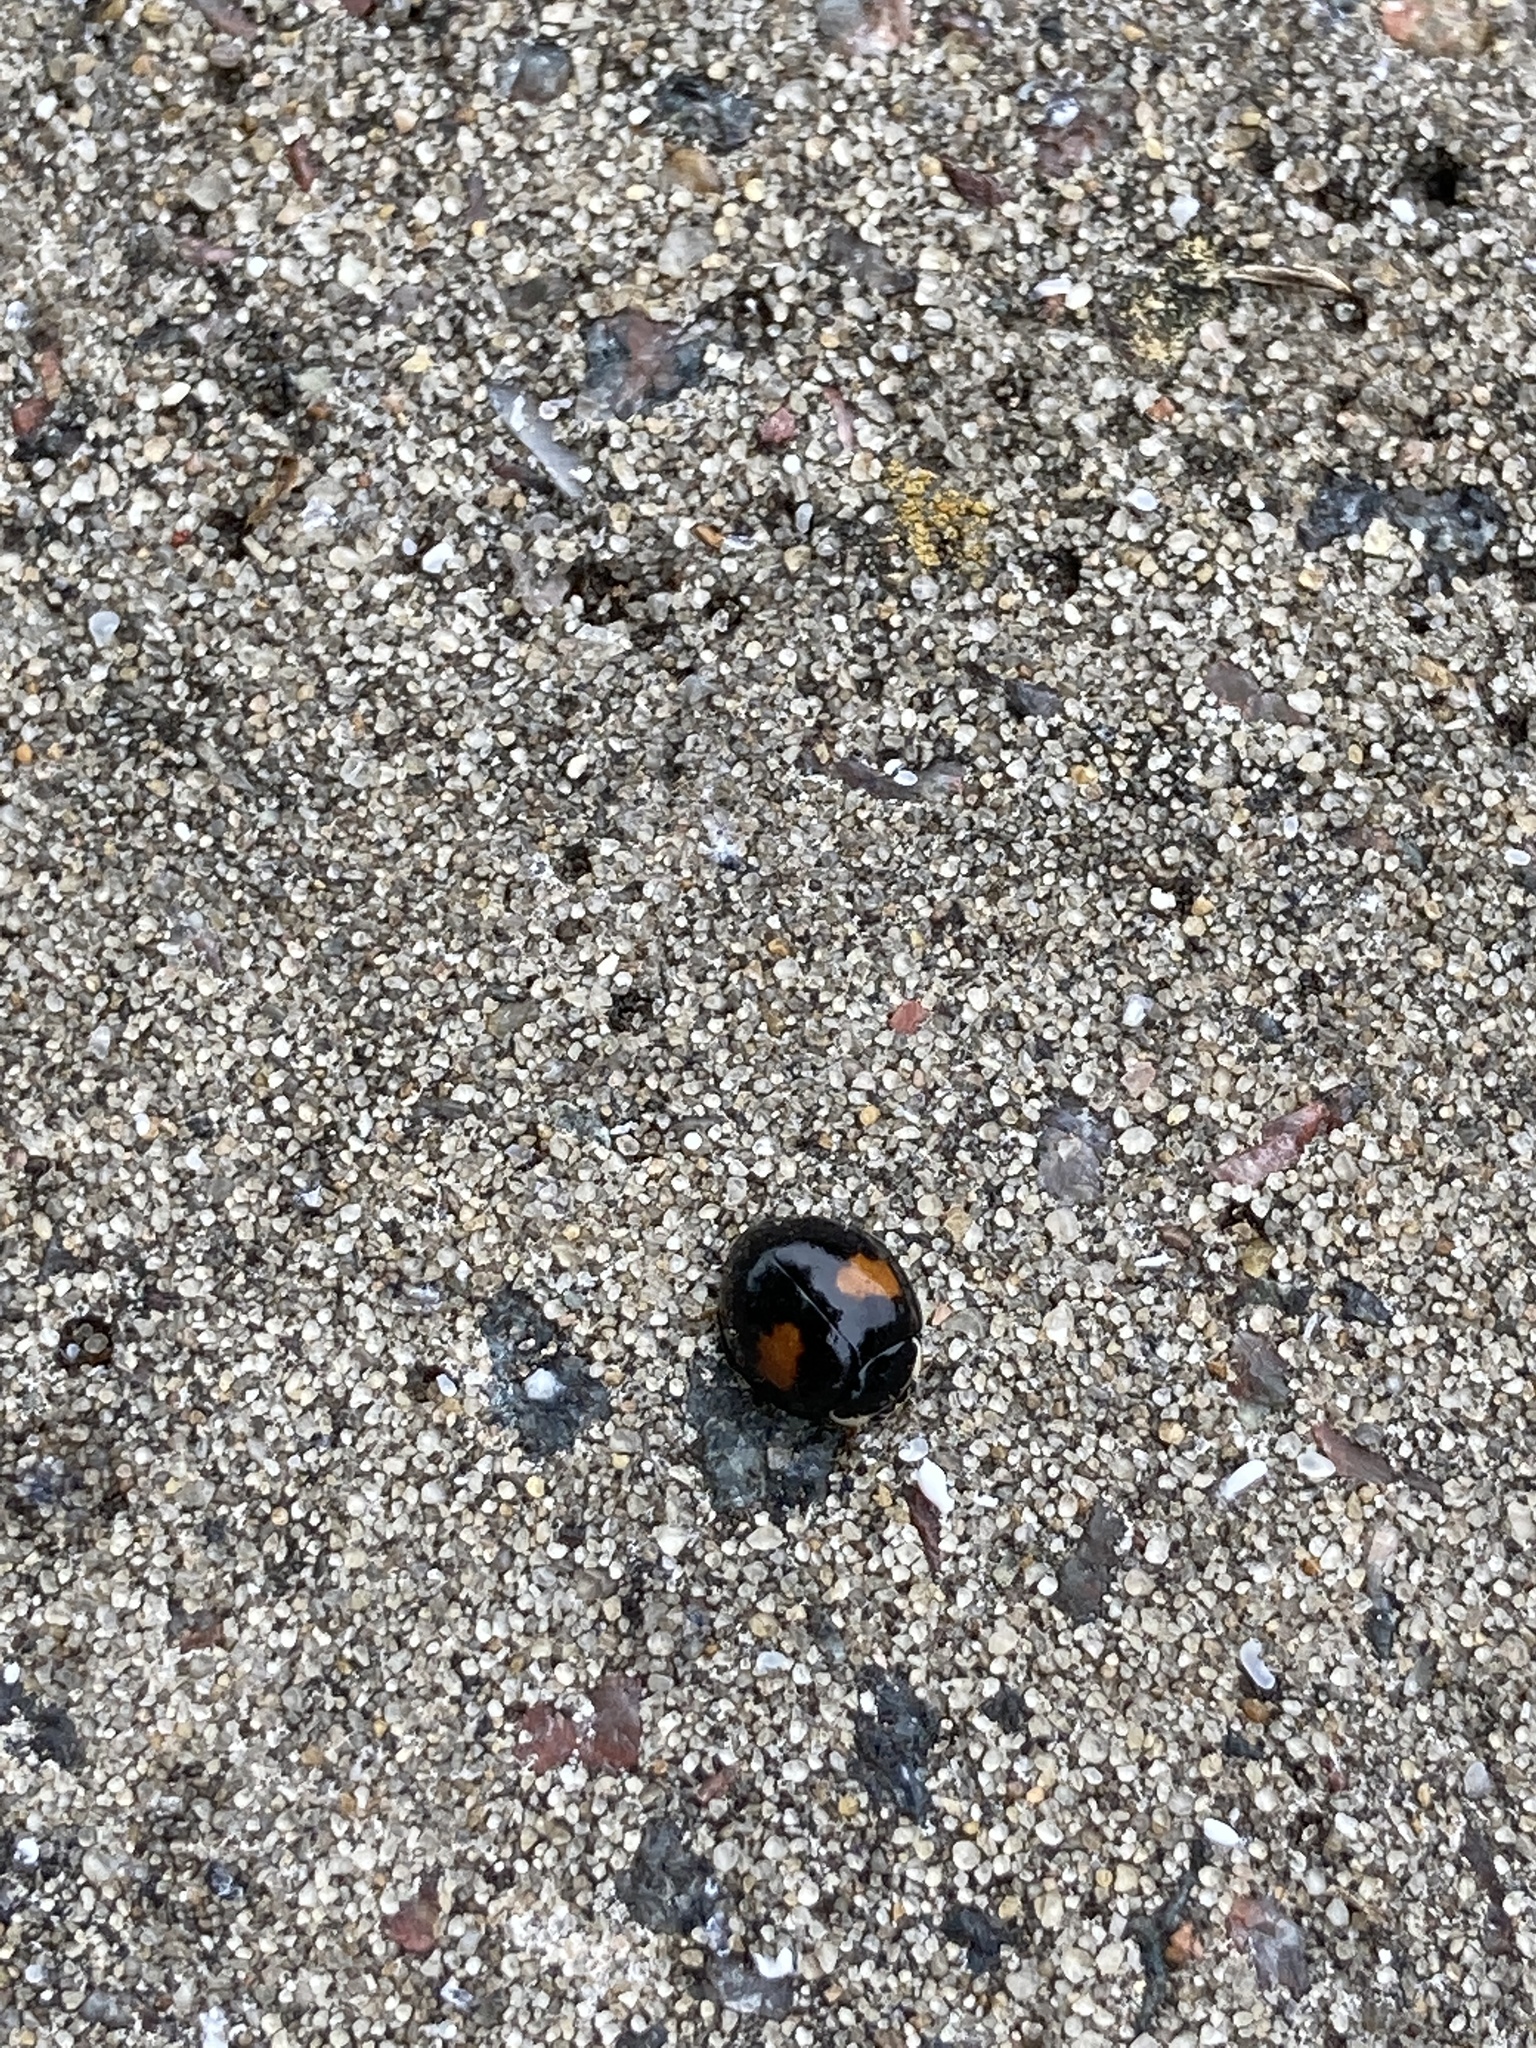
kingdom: Animalia
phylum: Arthropoda
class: Insecta
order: Coleoptera
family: Coccinellidae
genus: Olla
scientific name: Olla v-nigrum
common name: Ashy gray lady beetle
